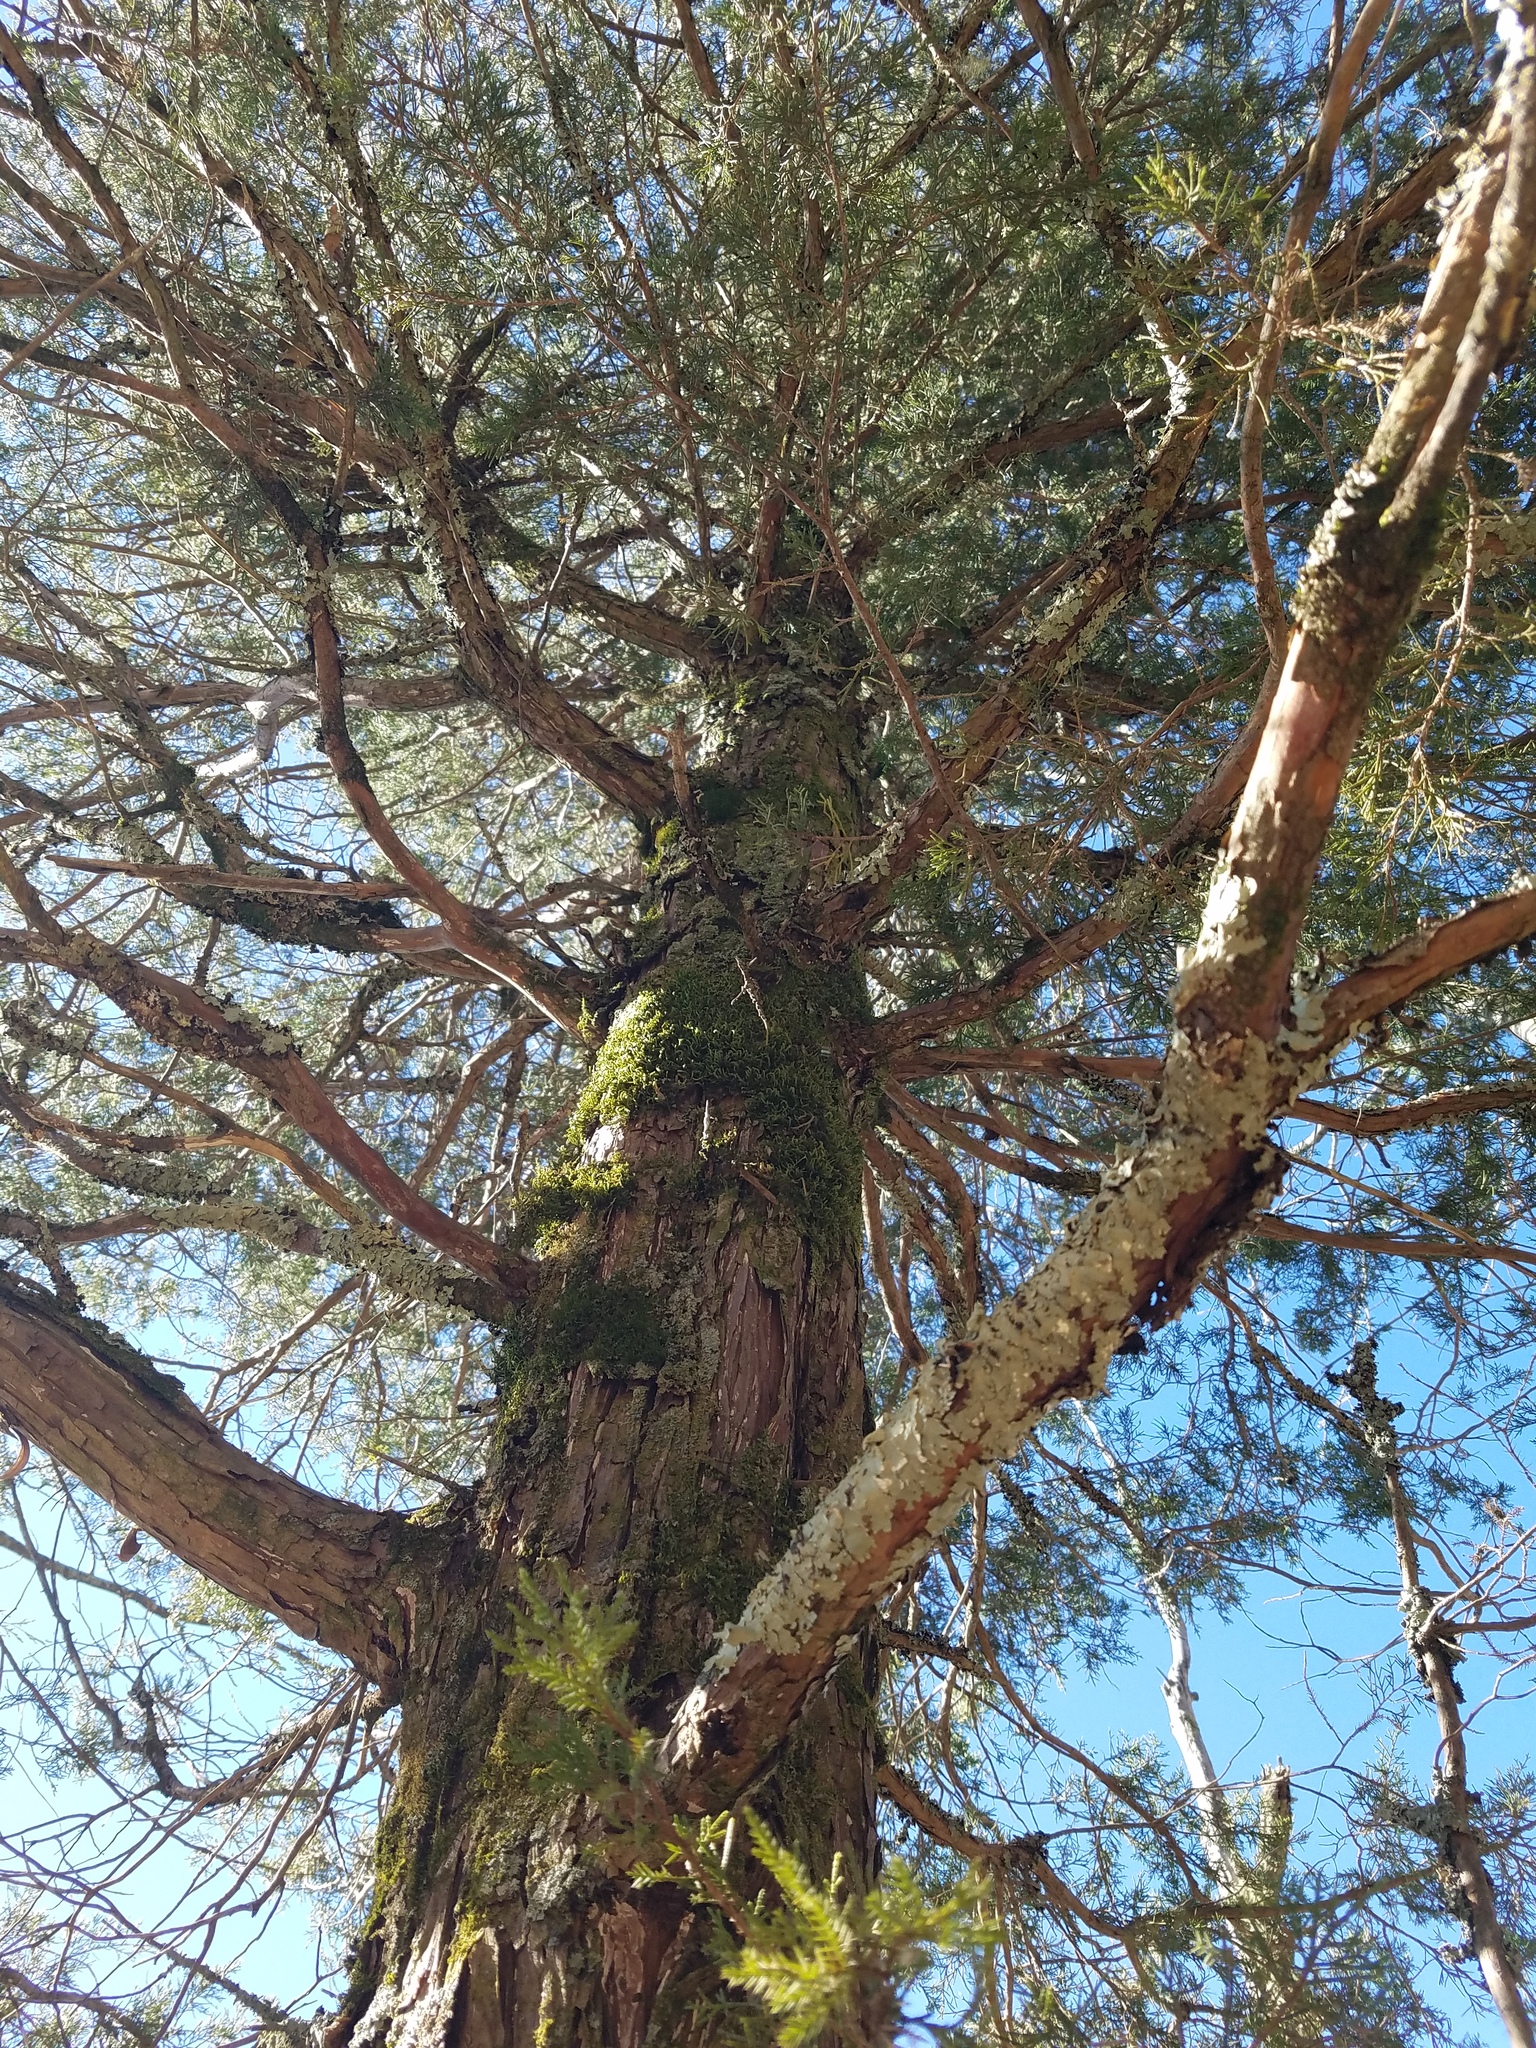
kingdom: Plantae
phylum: Tracheophyta
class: Pinopsida
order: Pinales
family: Cupressaceae
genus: Juniperus
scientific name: Juniperus virginiana
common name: Red juniper
